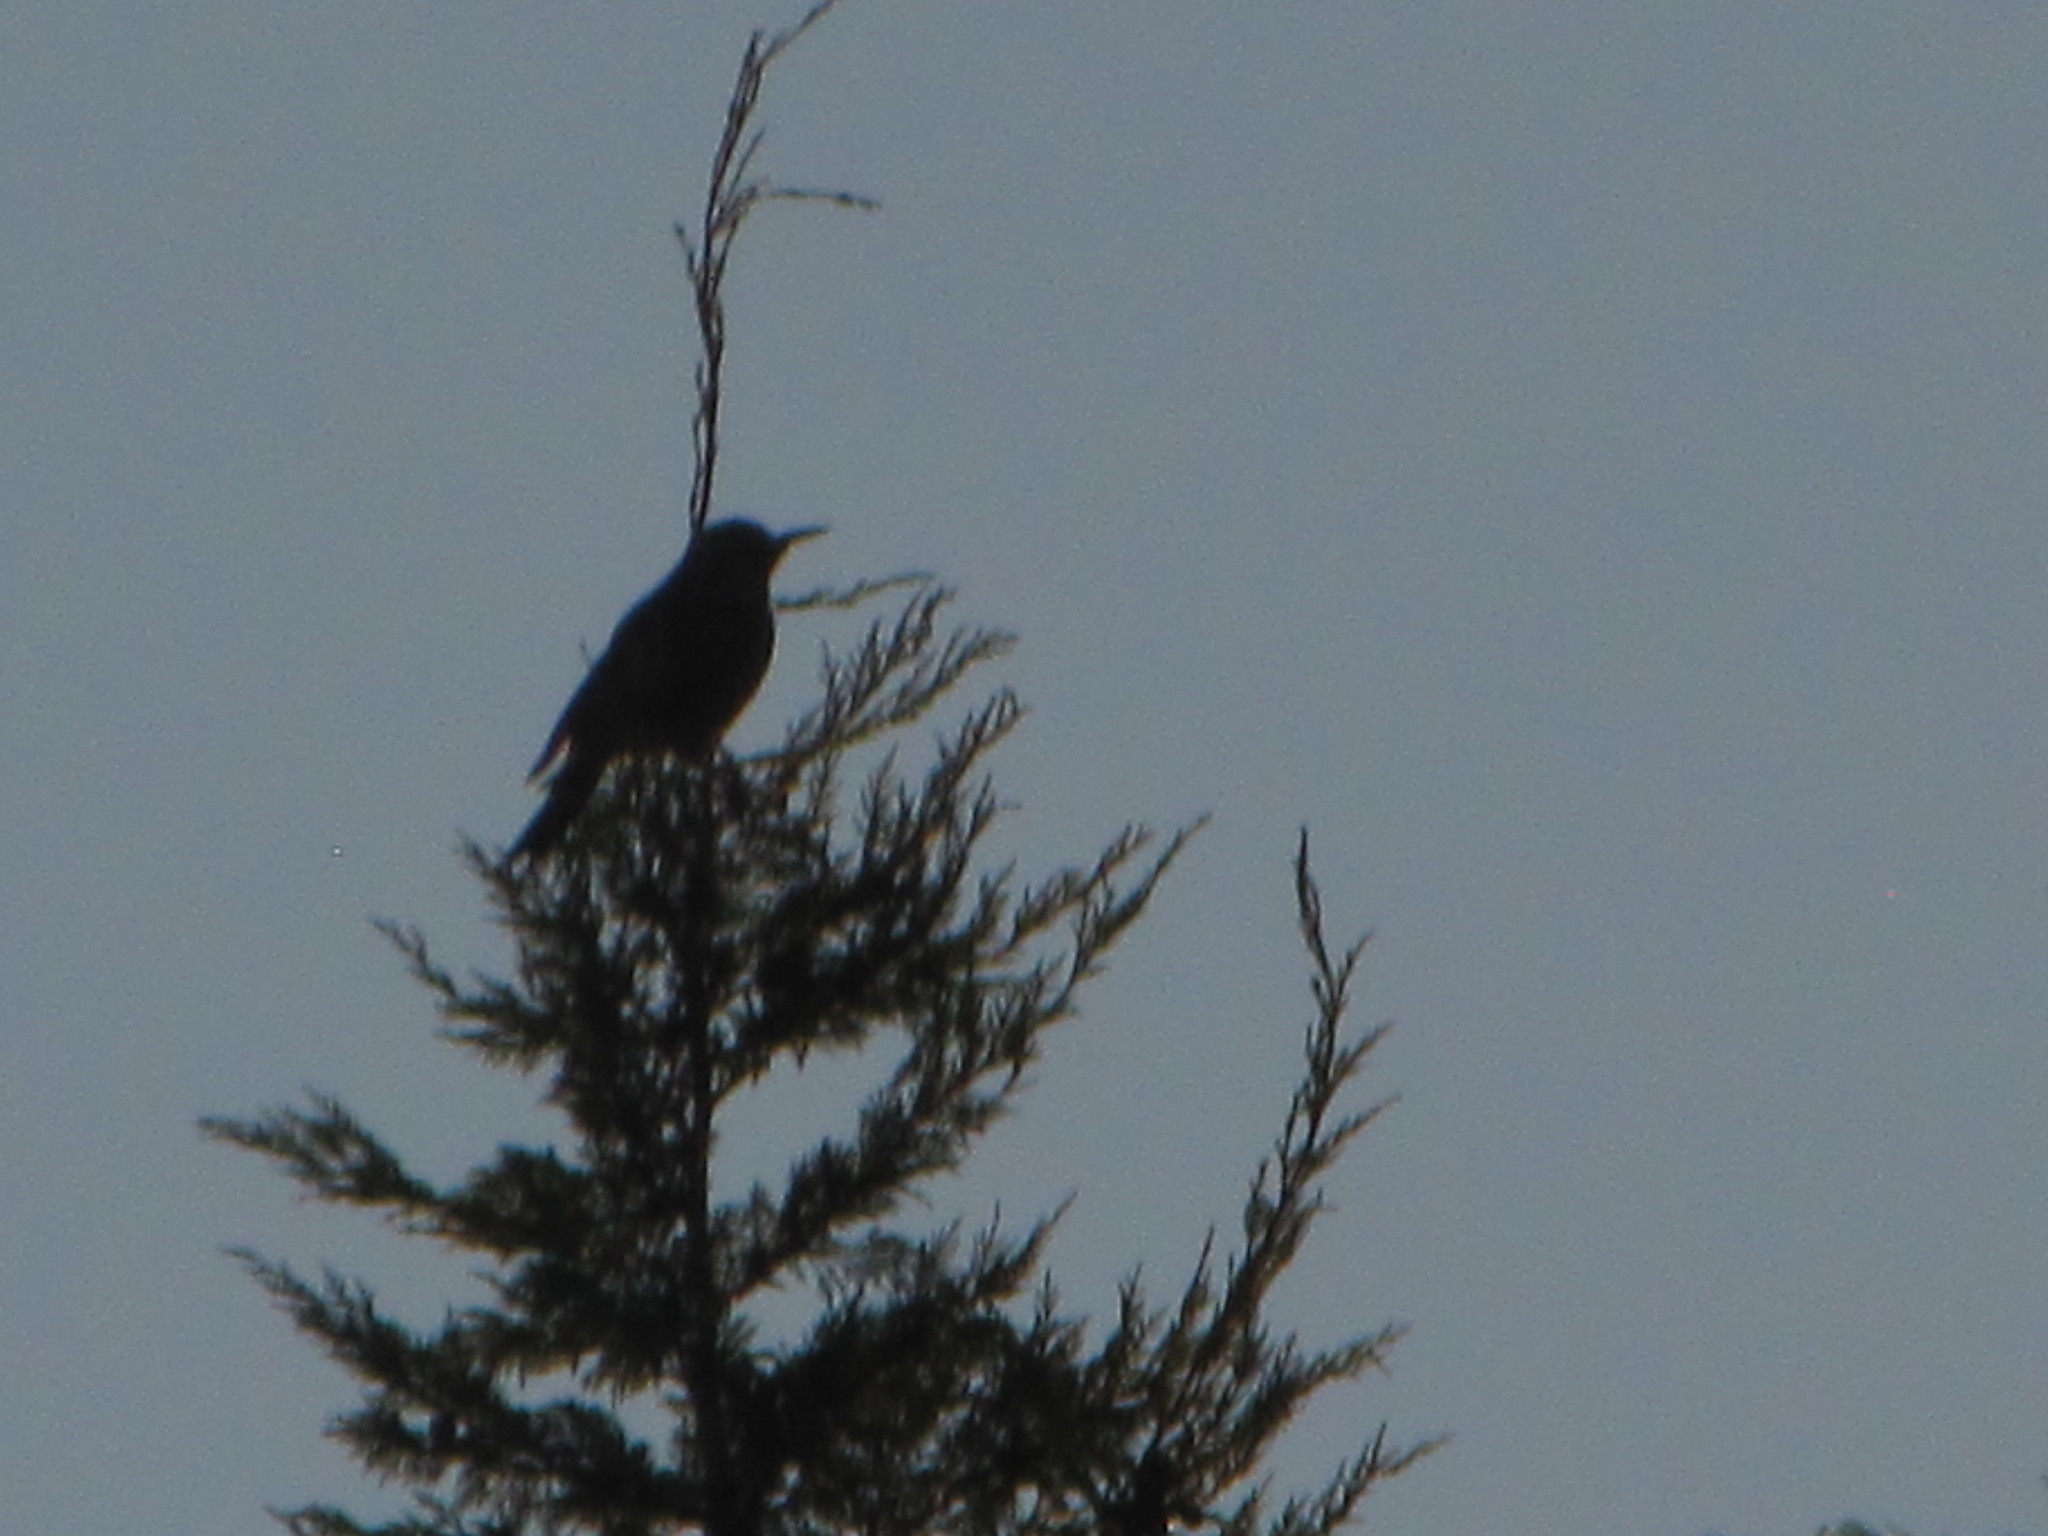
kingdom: Animalia
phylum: Chordata
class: Aves
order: Passeriformes
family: Sturnidae
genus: Sturnus
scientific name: Sturnus vulgaris
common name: Common starling
